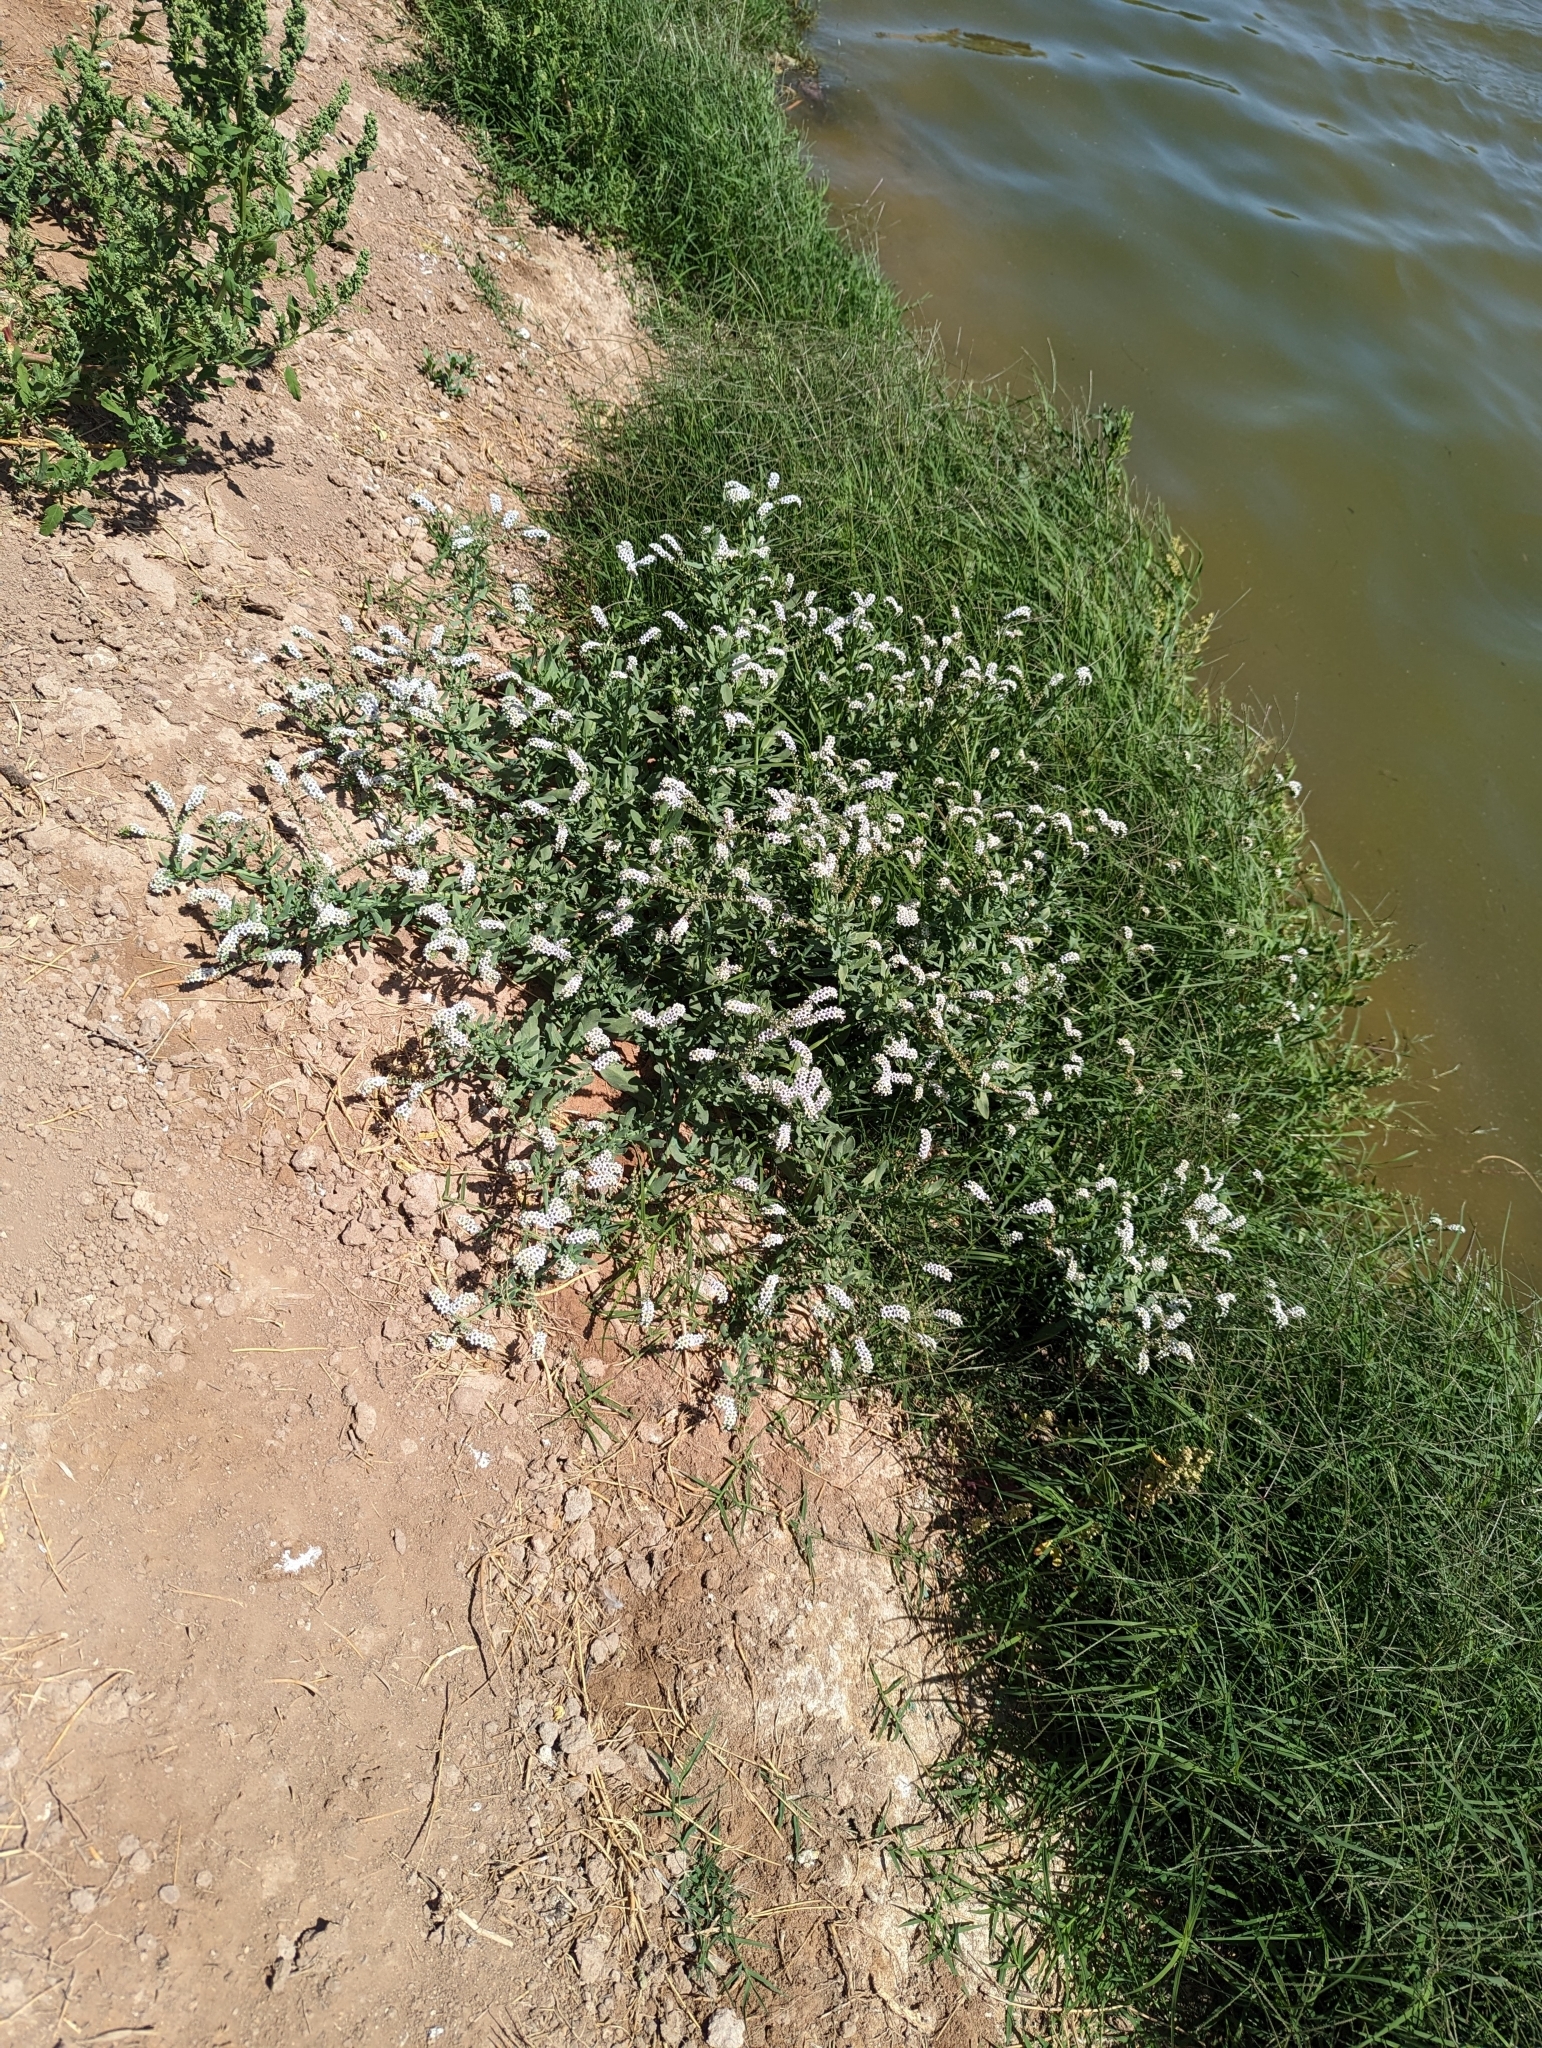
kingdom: Plantae
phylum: Tracheophyta
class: Magnoliopsida
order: Boraginales
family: Heliotropiaceae
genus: Heliotropium
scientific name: Heliotropium curassavicum
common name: Seaside heliotrope
